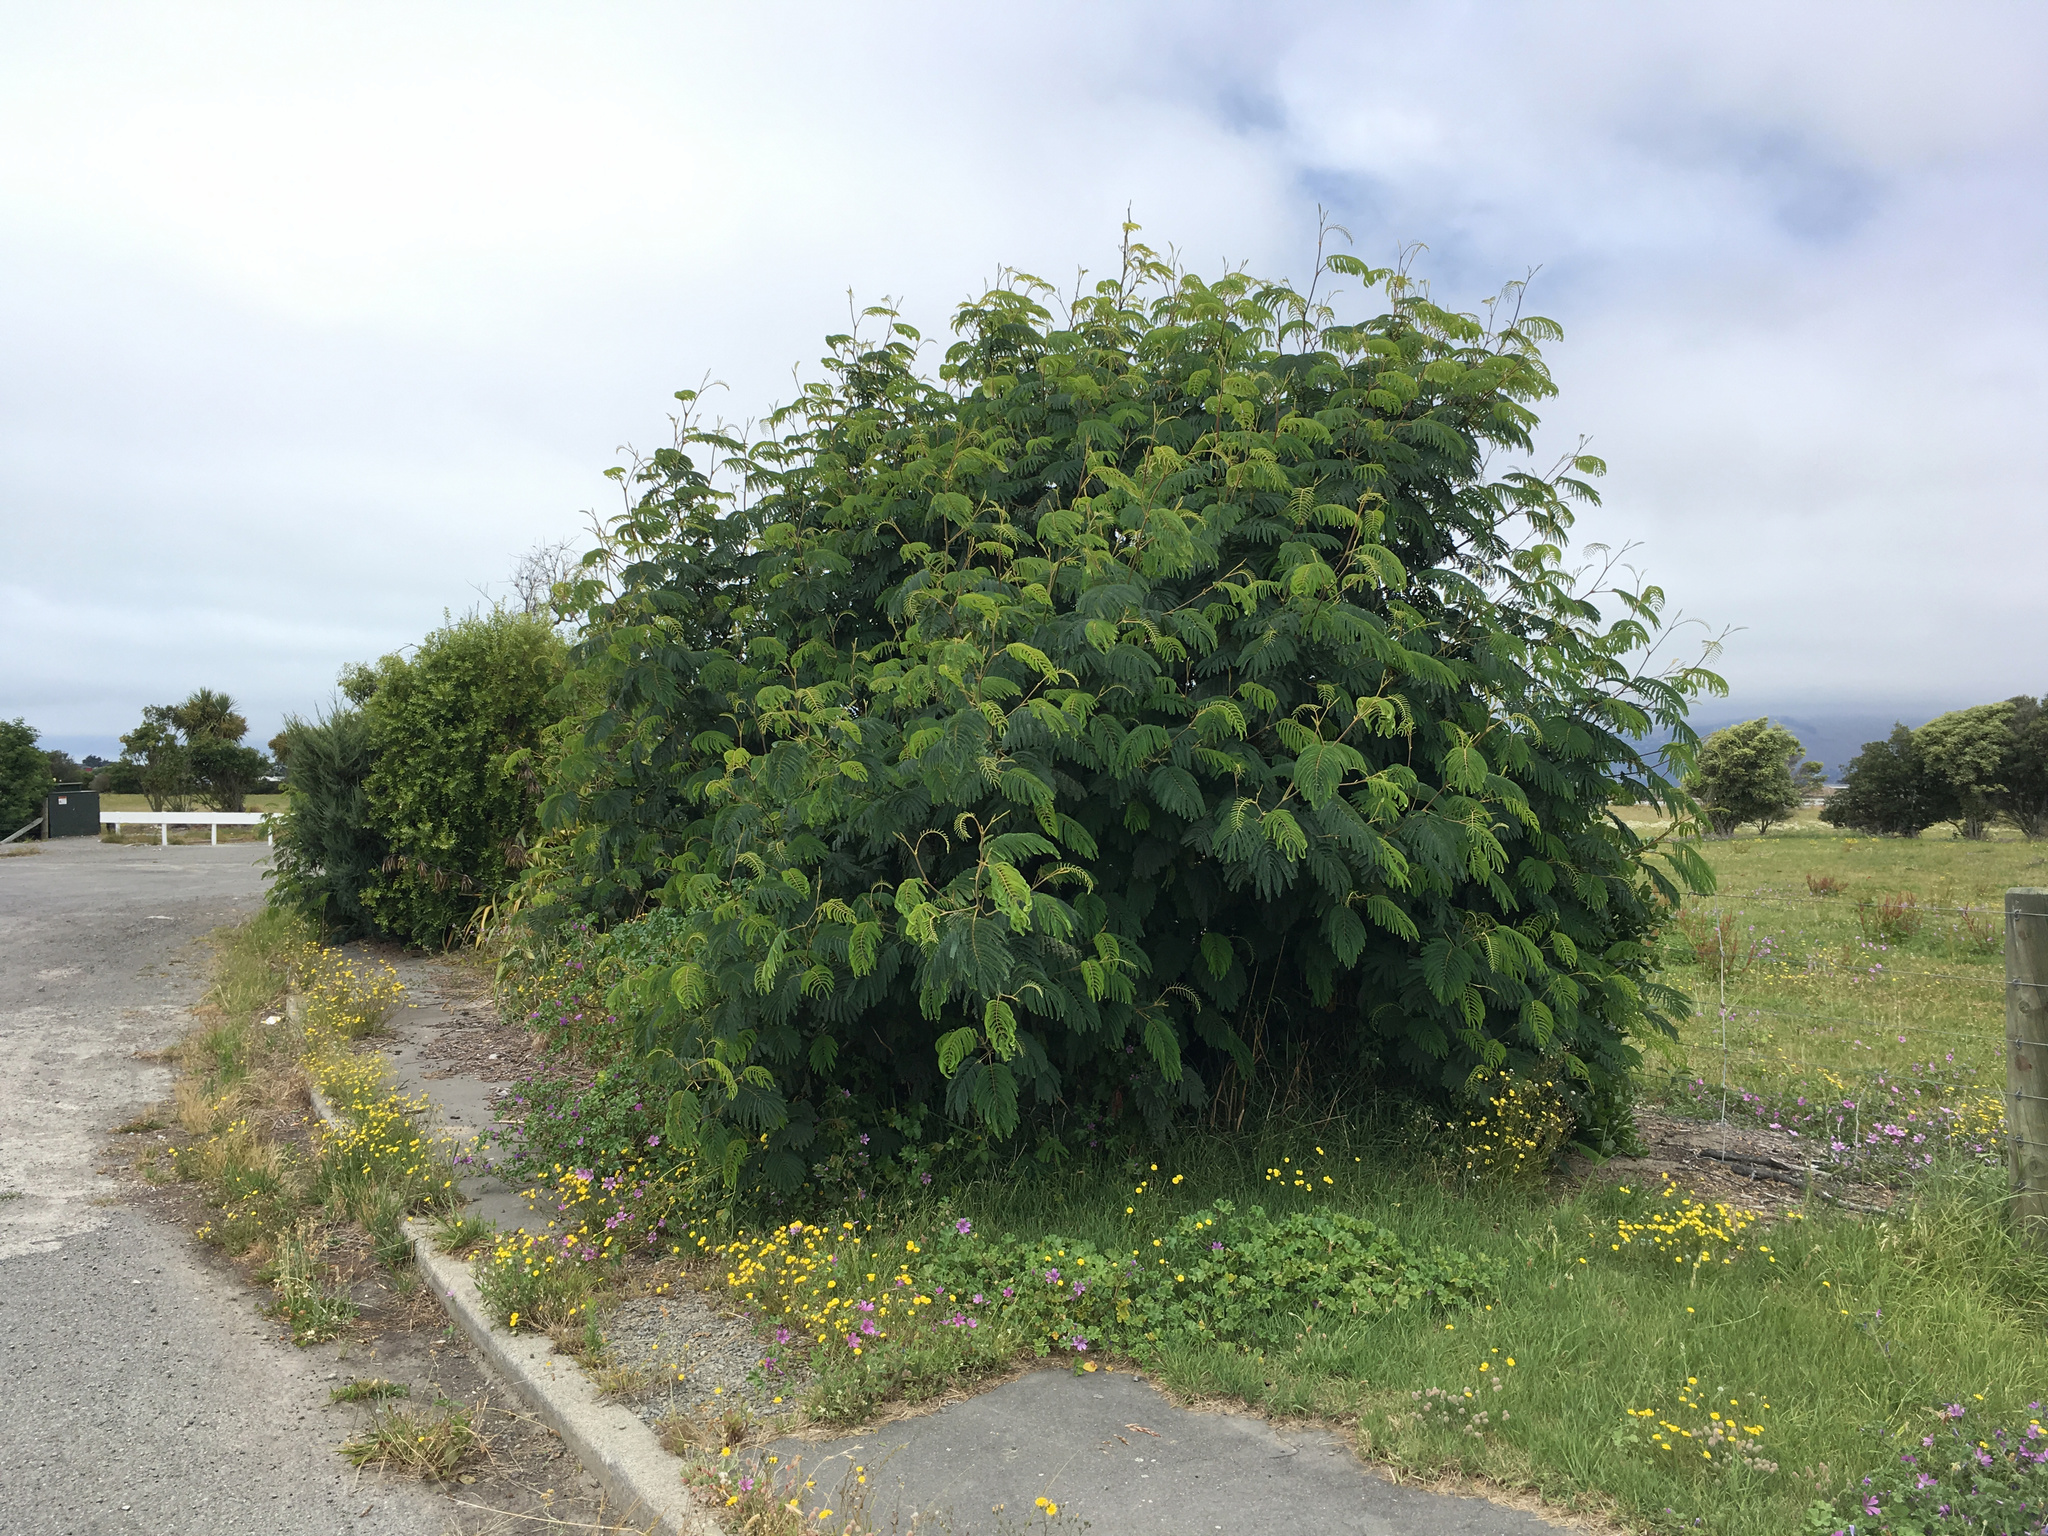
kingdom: Plantae
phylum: Tracheophyta
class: Magnoliopsida
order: Fabales
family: Fabaceae
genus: Paraserianthes
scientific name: Paraserianthes lophantha
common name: Plume albizia
